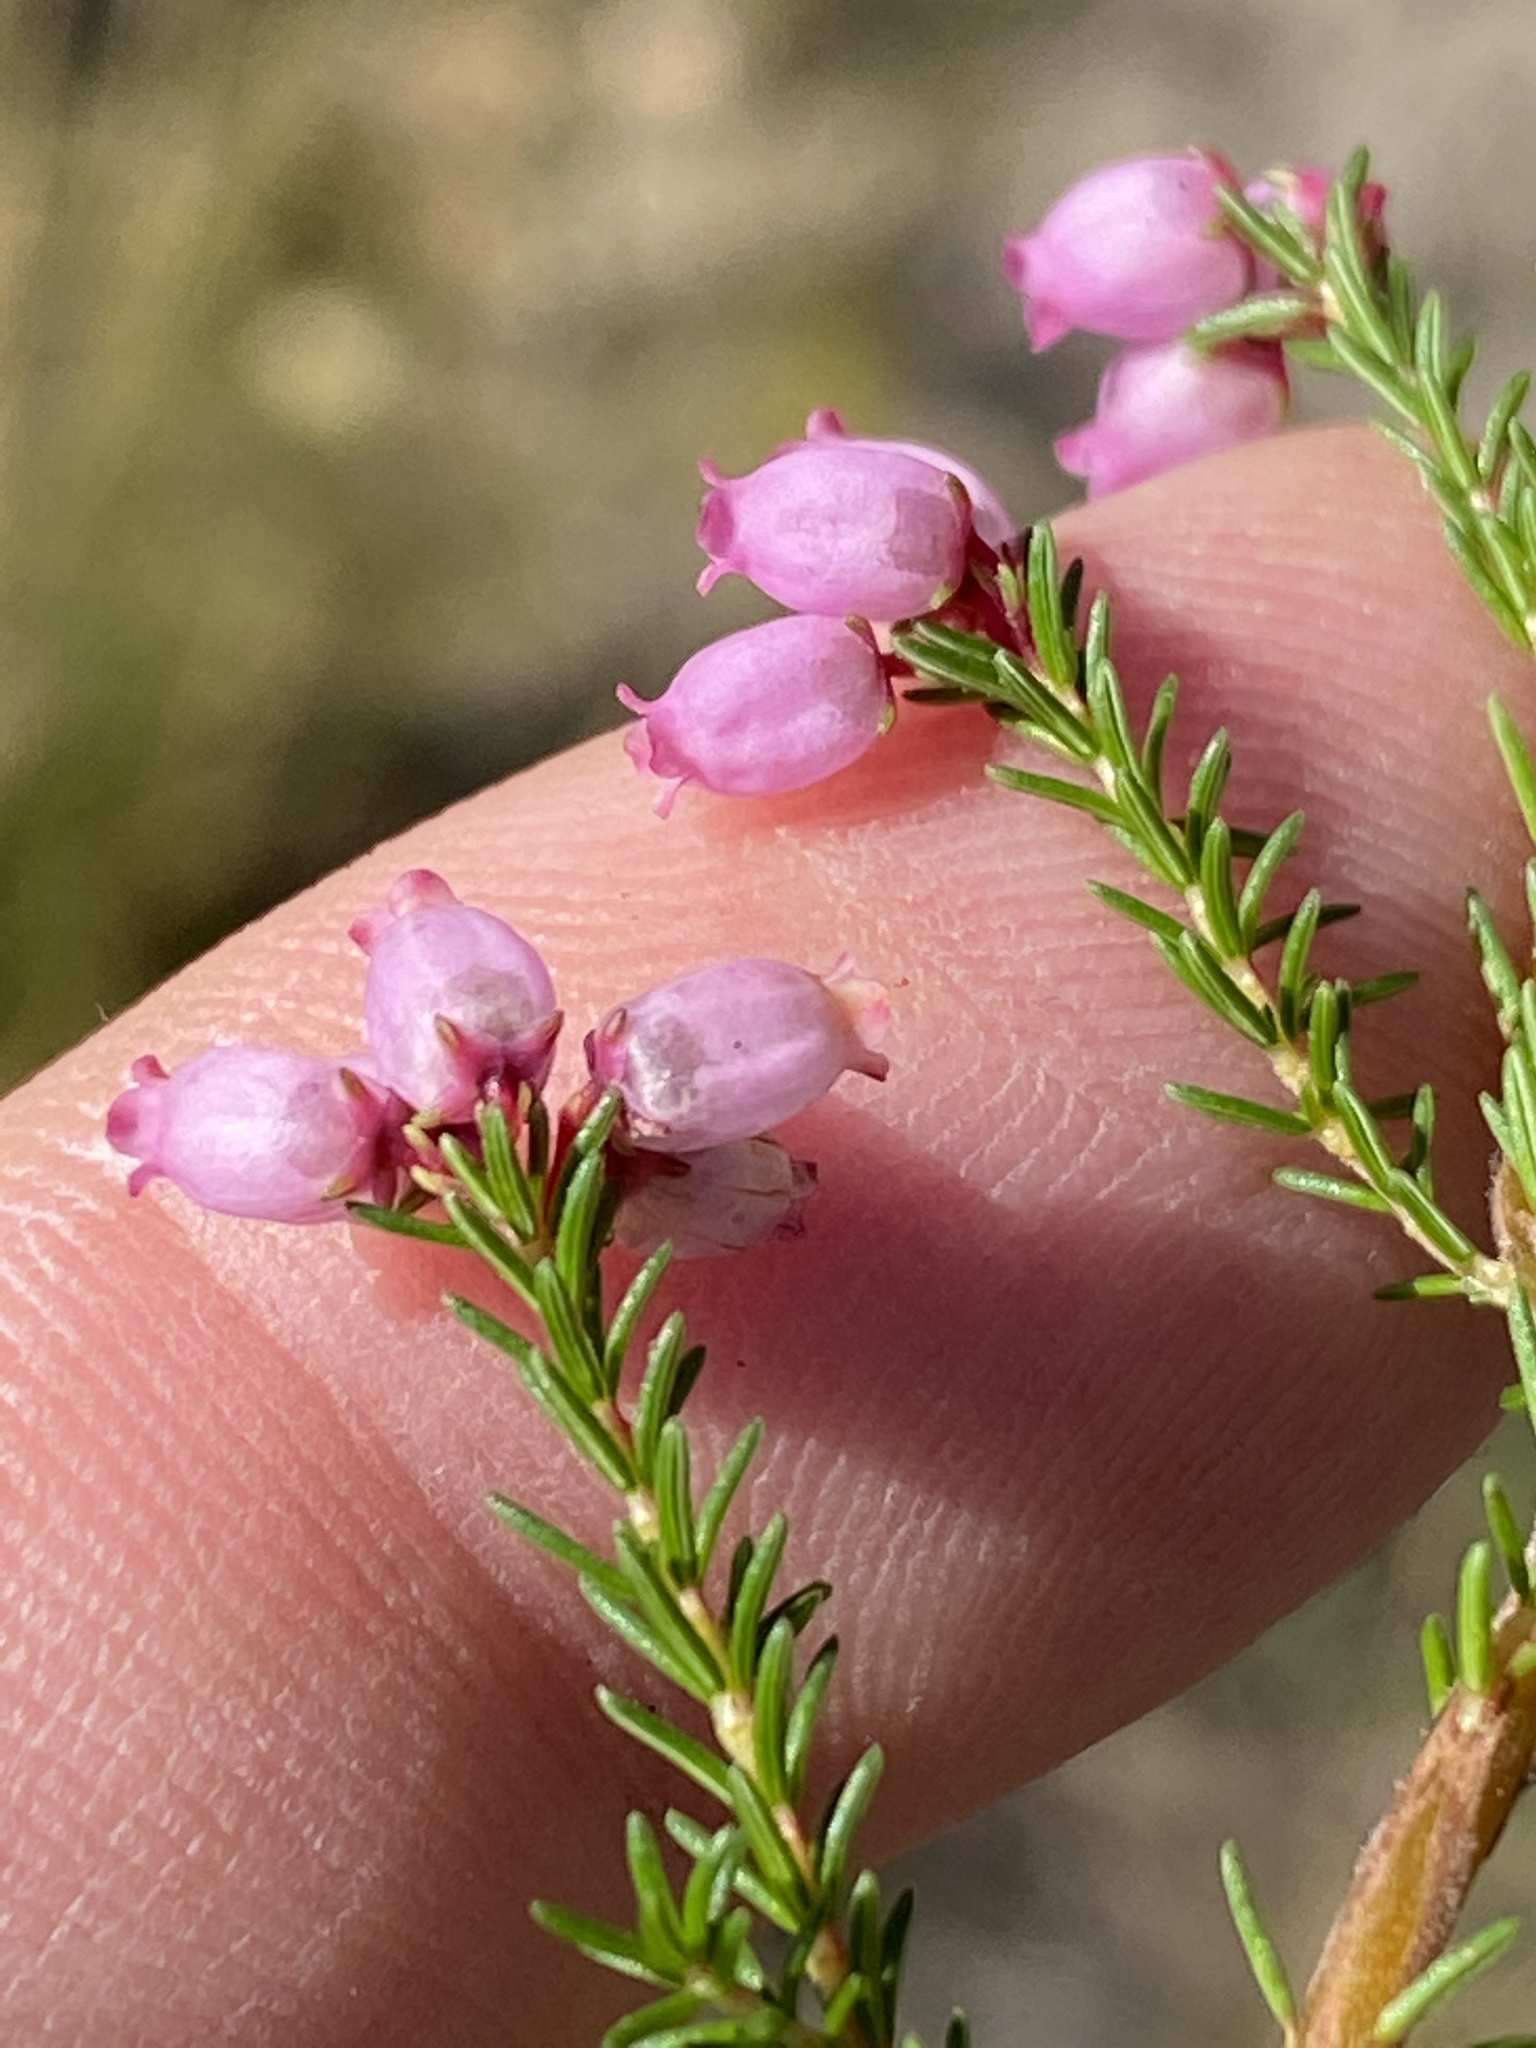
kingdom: Plantae
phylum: Tracheophyta
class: Magnoliopsida
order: Ericales
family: Ericaceae
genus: Erica
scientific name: Erica gracilis
